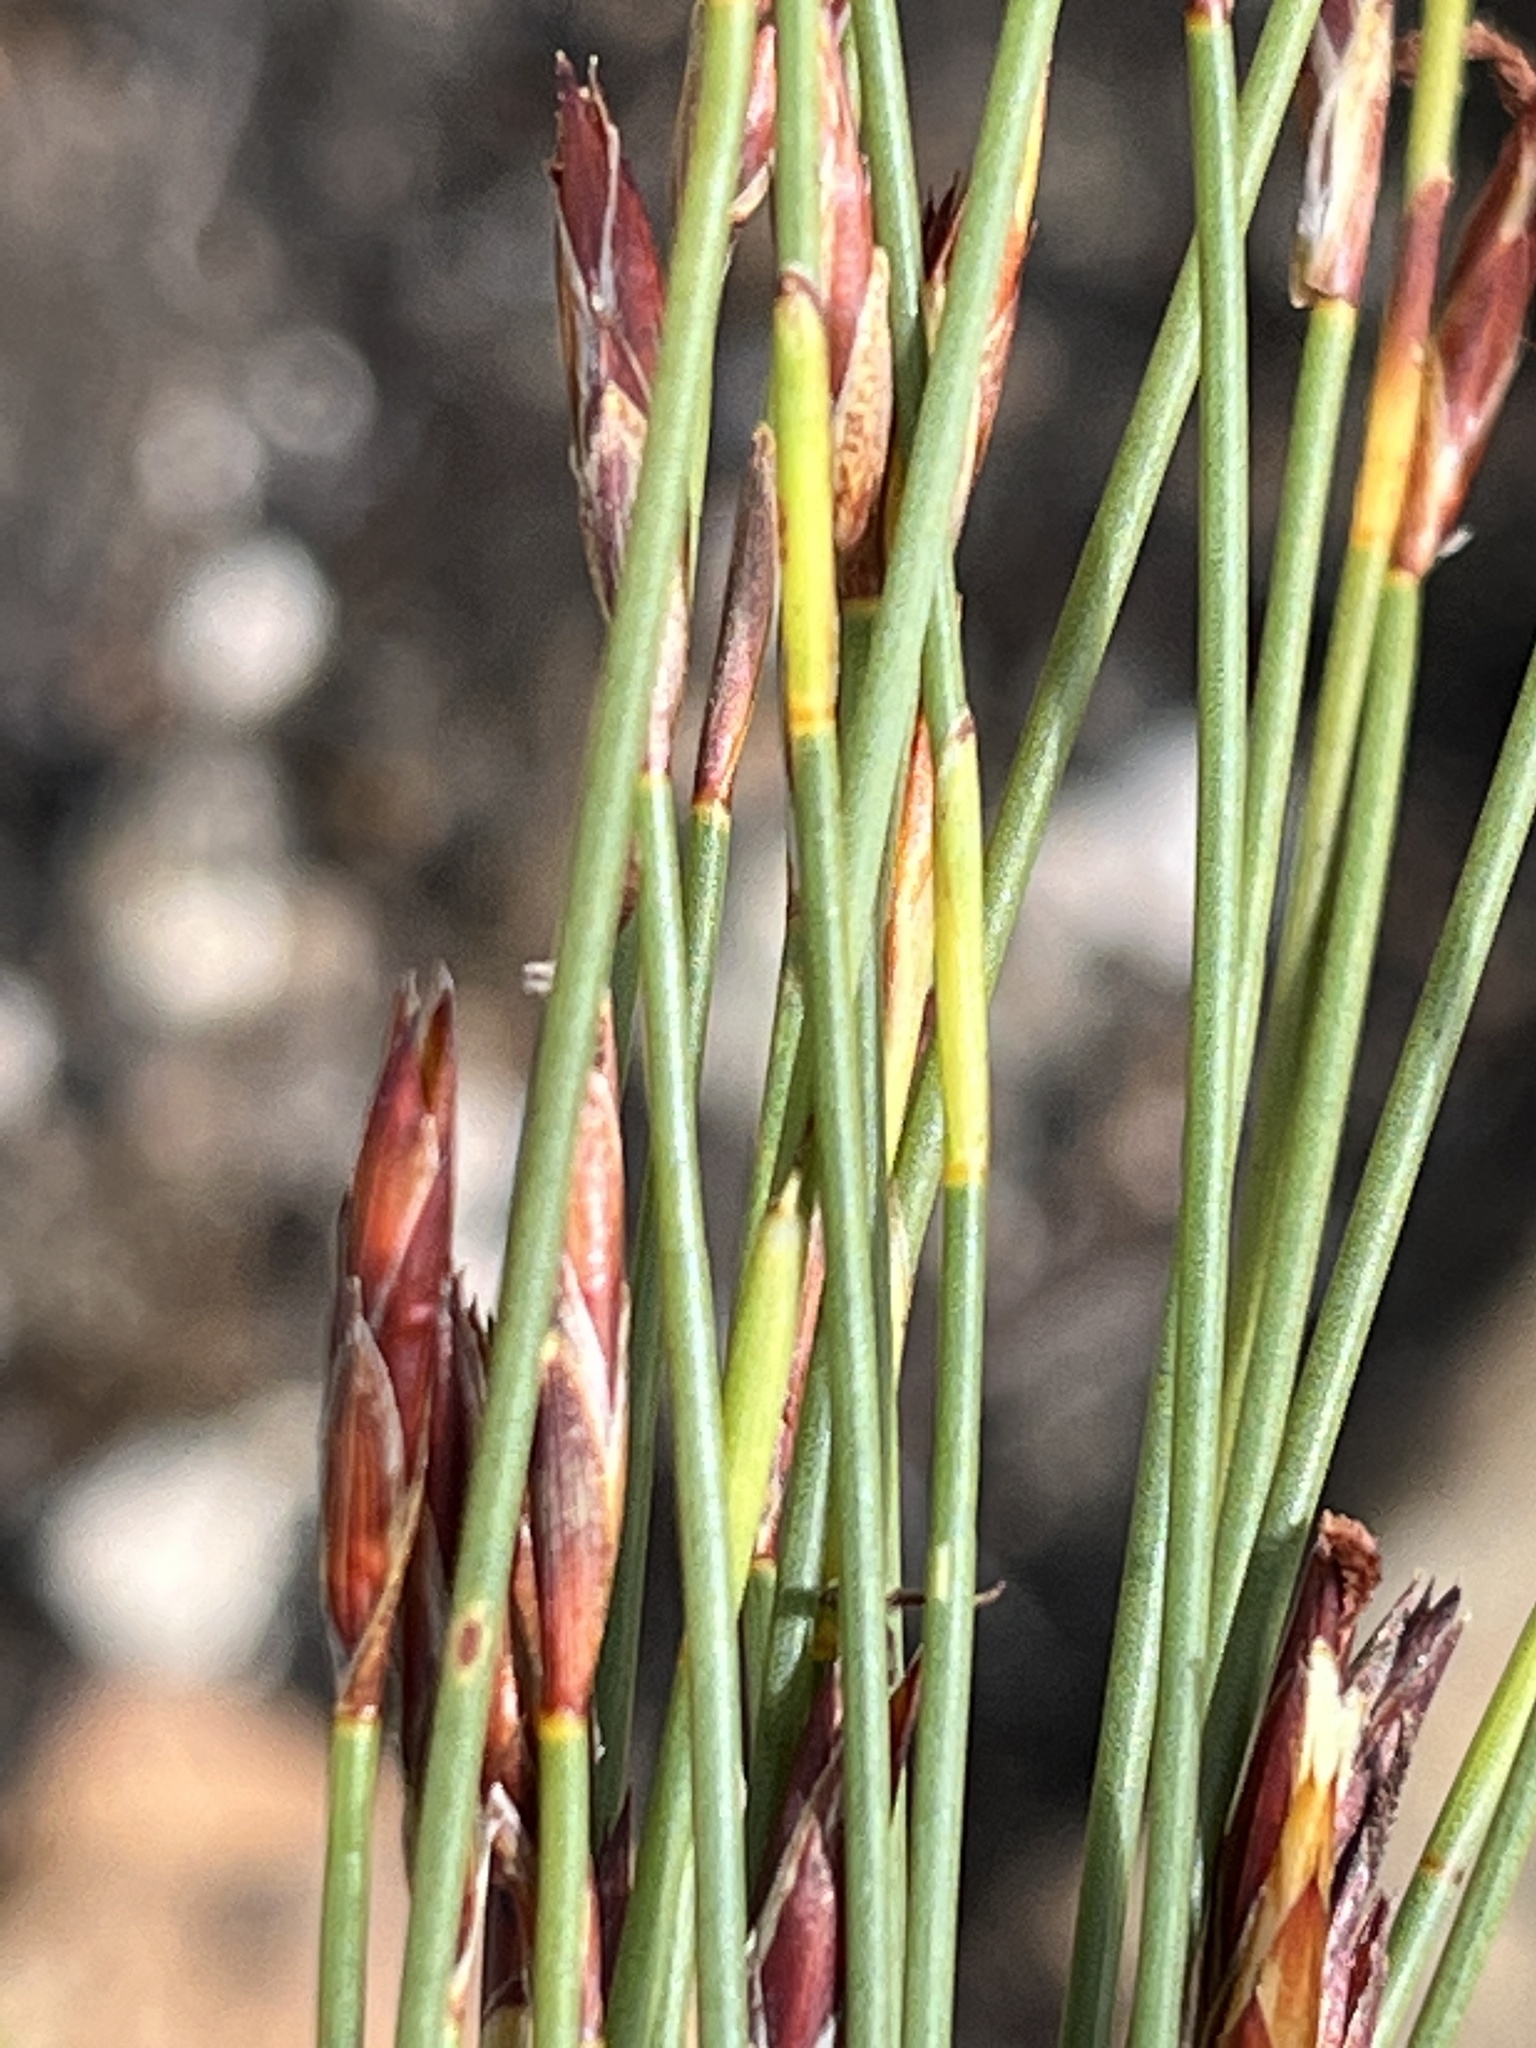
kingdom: Plantae
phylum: Tracheophyta
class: Liliopsida
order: Poales
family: Restionaceae
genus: Hypodiscus
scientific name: Hypodiscus striatus
